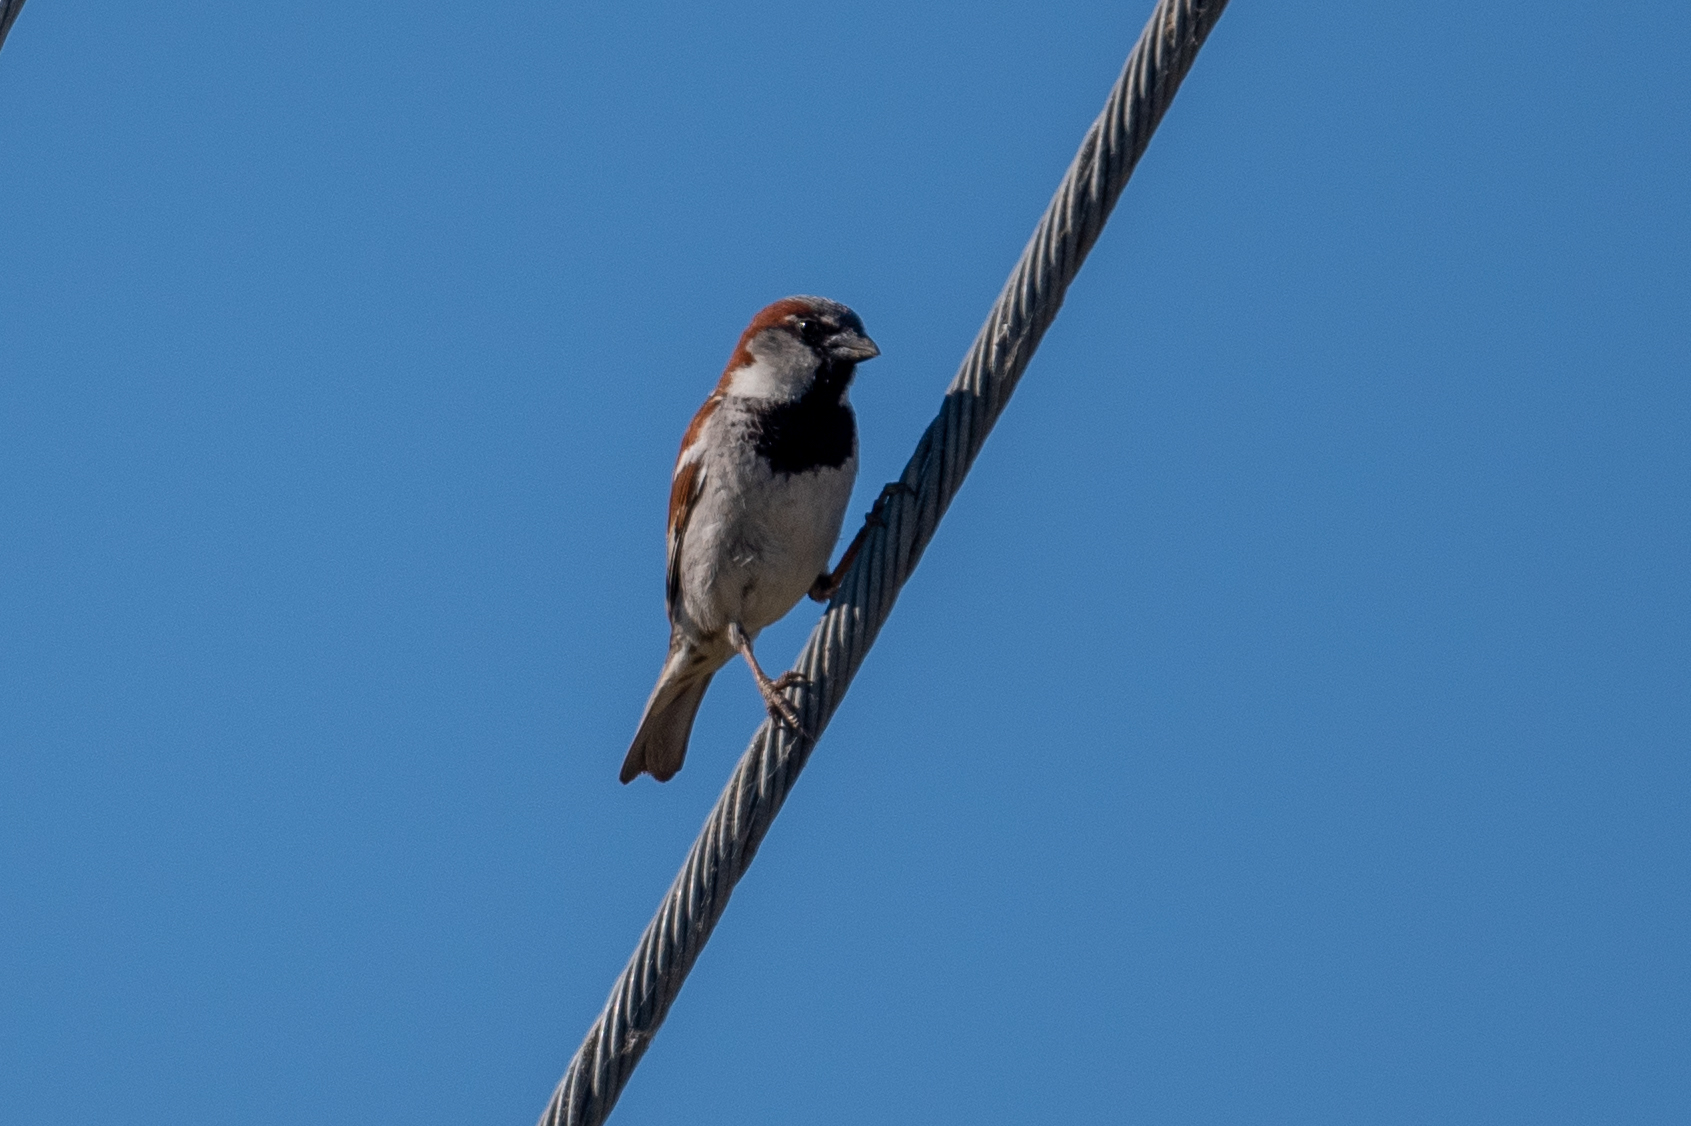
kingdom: Animalia
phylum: Chordata
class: Aves
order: Passeriformes
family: Passeridae
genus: Passer
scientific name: Passer domesticus
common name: House sparrow
